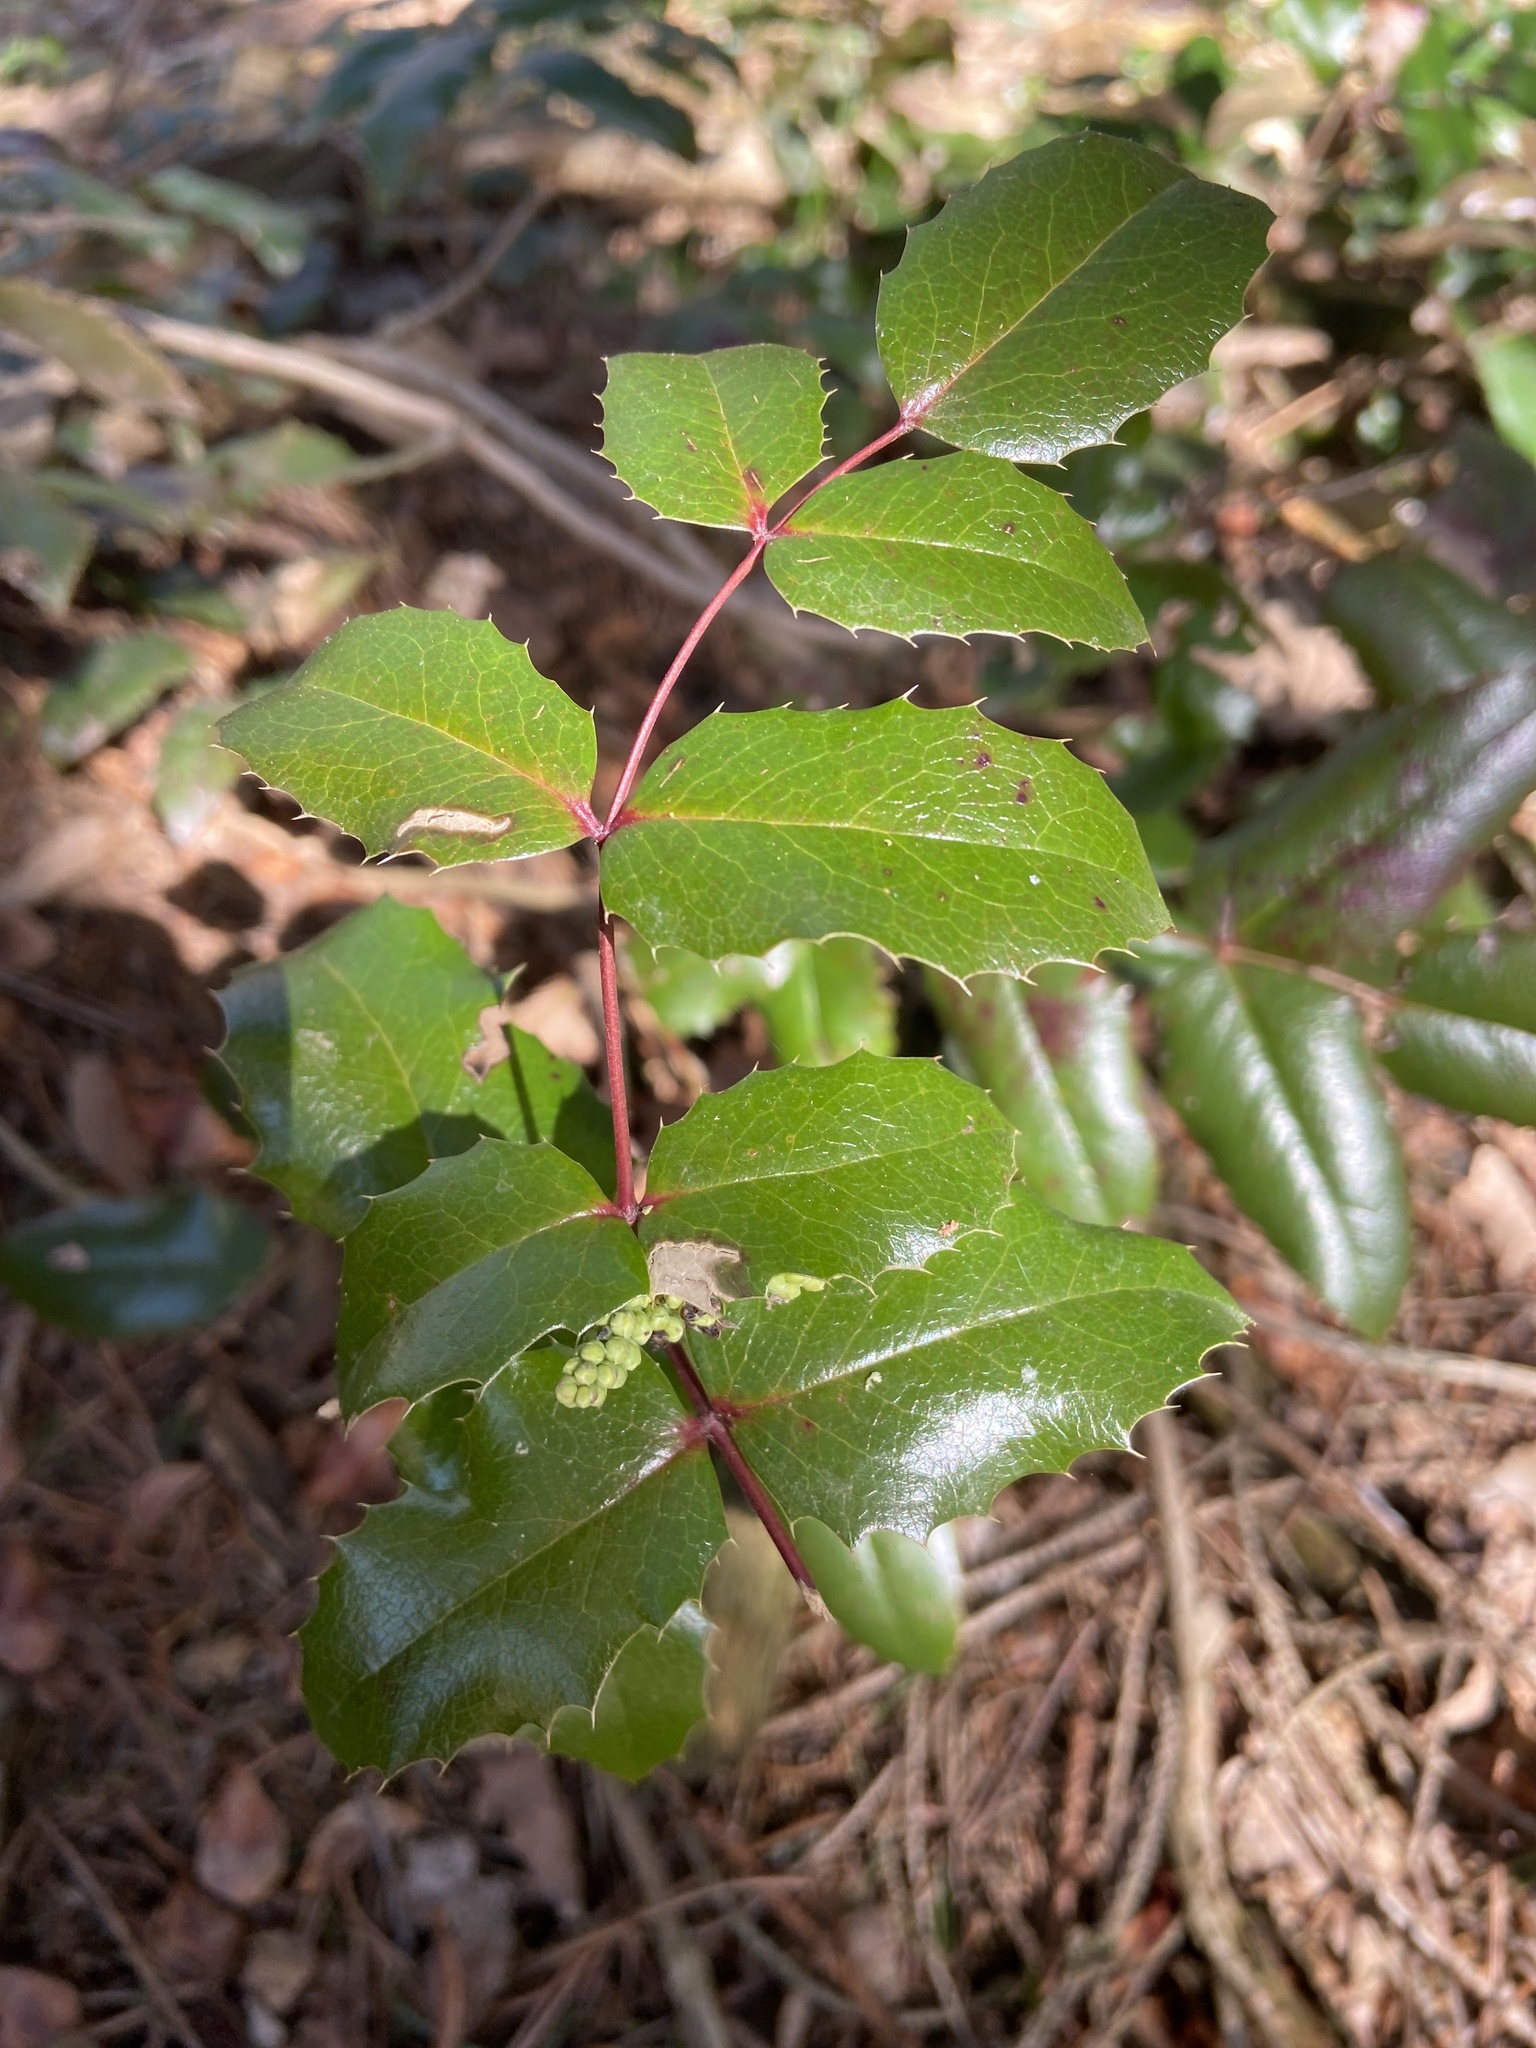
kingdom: Plantae
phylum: Tracheophyta
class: Magnoliopsida
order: Ranunculales
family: Berberidaceae
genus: Mahonia
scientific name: Mahonia aquifolium
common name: Oregon-grape
